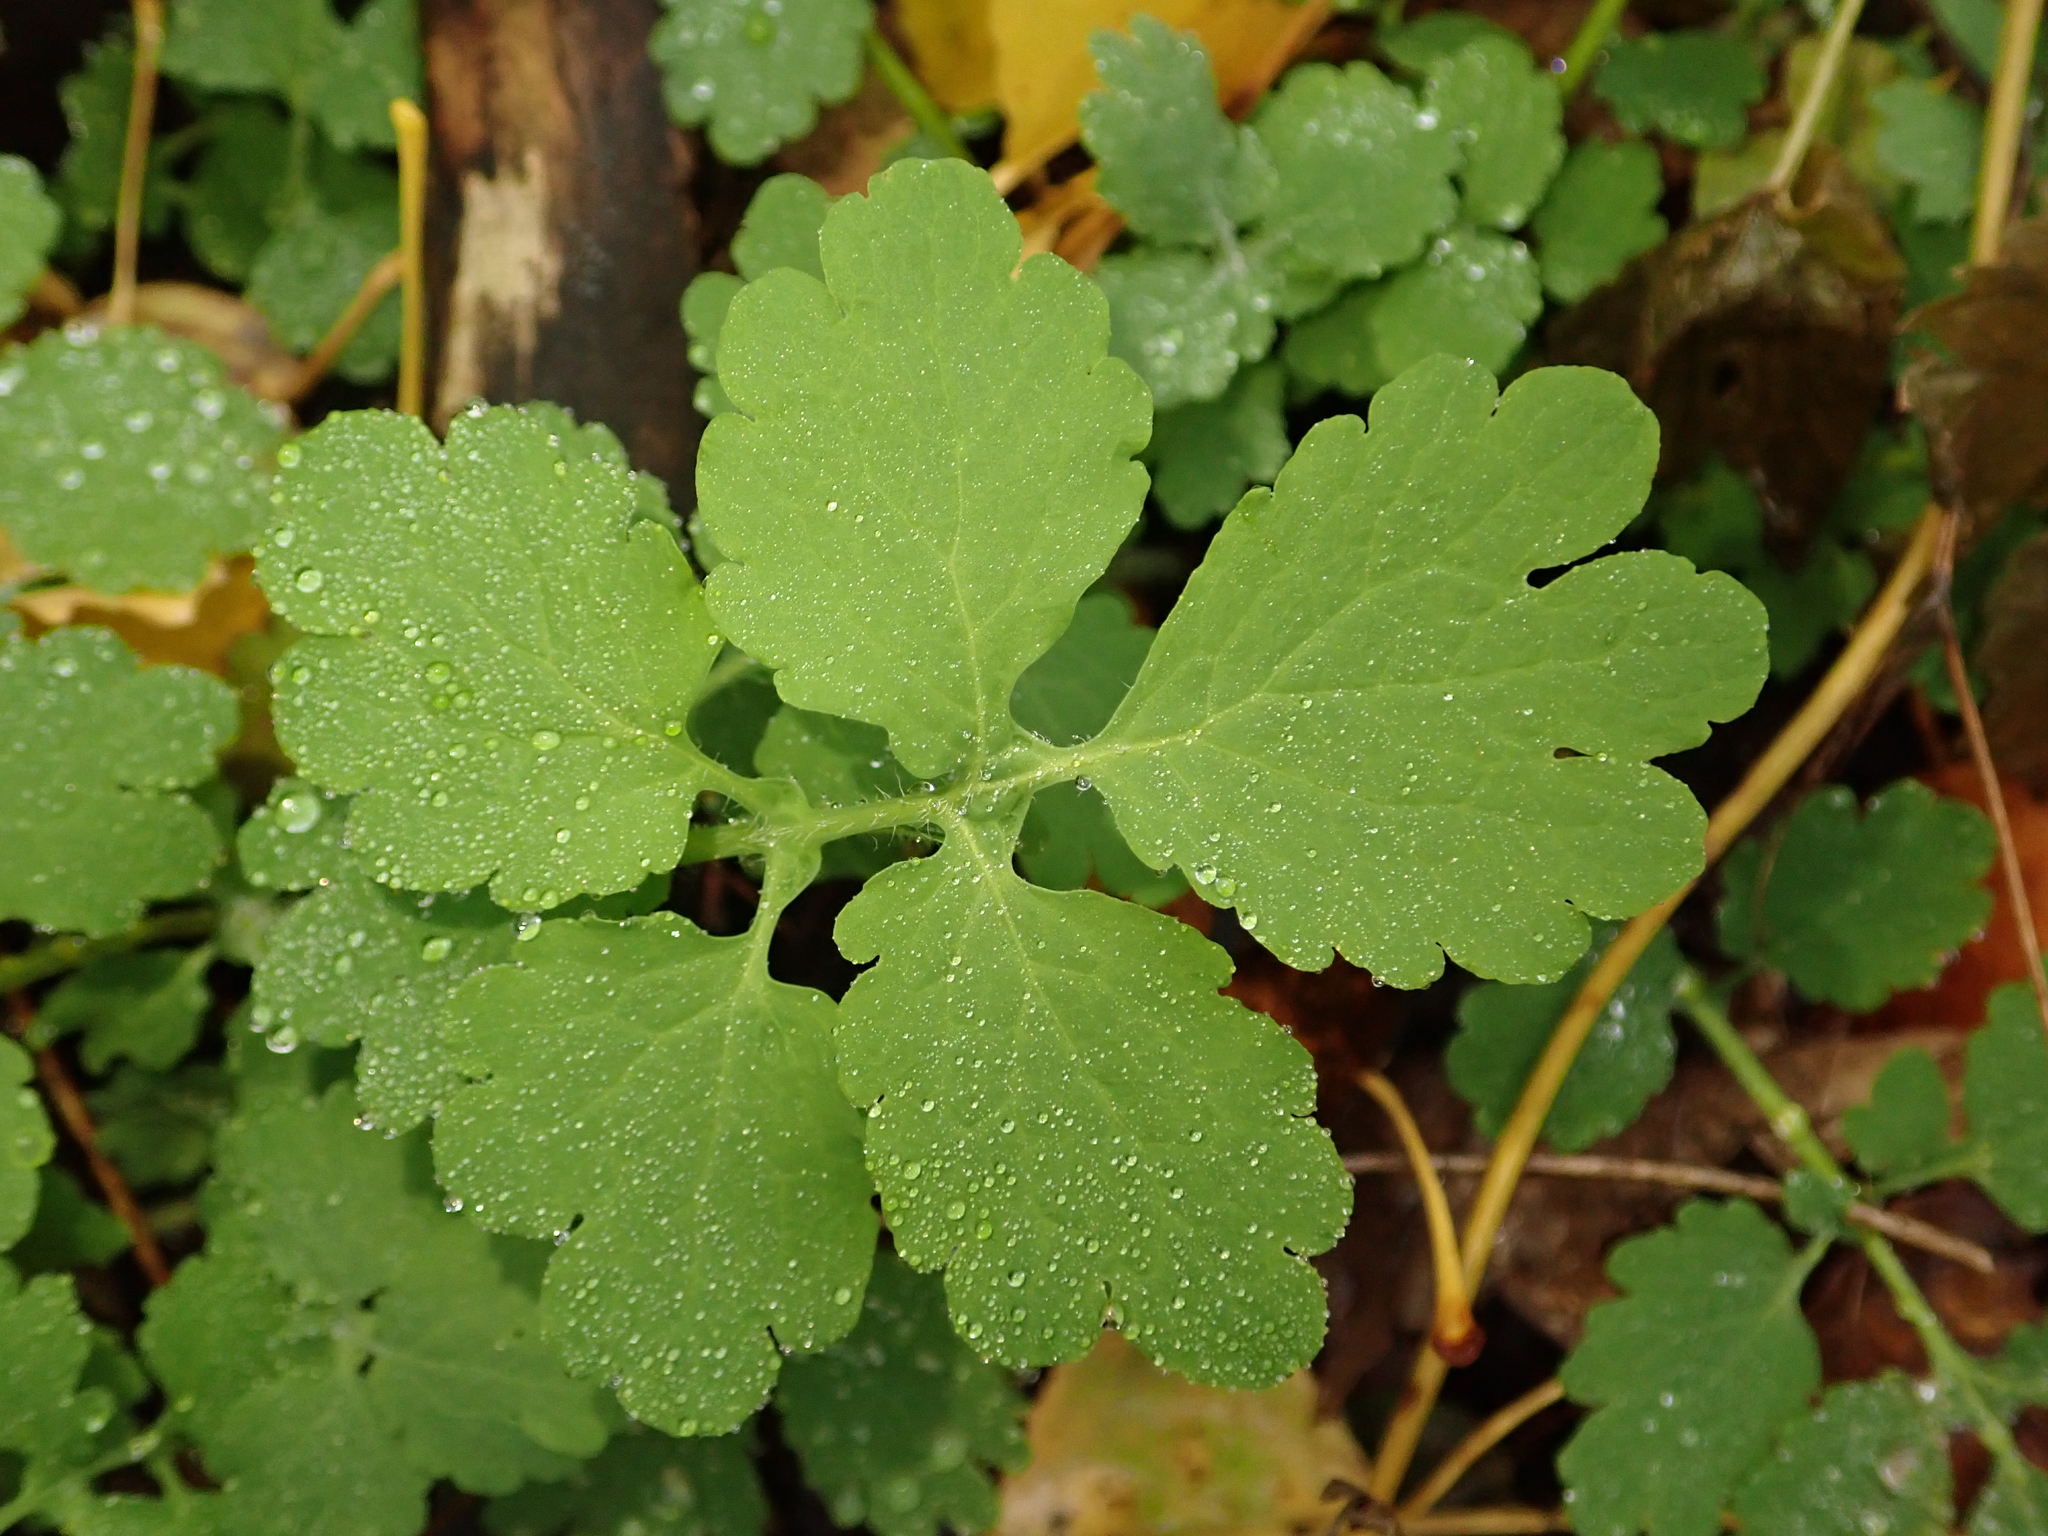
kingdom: Plantae
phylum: Tracheophyta
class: Magnoliopsida
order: Ranunculales
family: Papaveraceae
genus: Chelidonium
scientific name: Chelidonium majus
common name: Greater celandine
